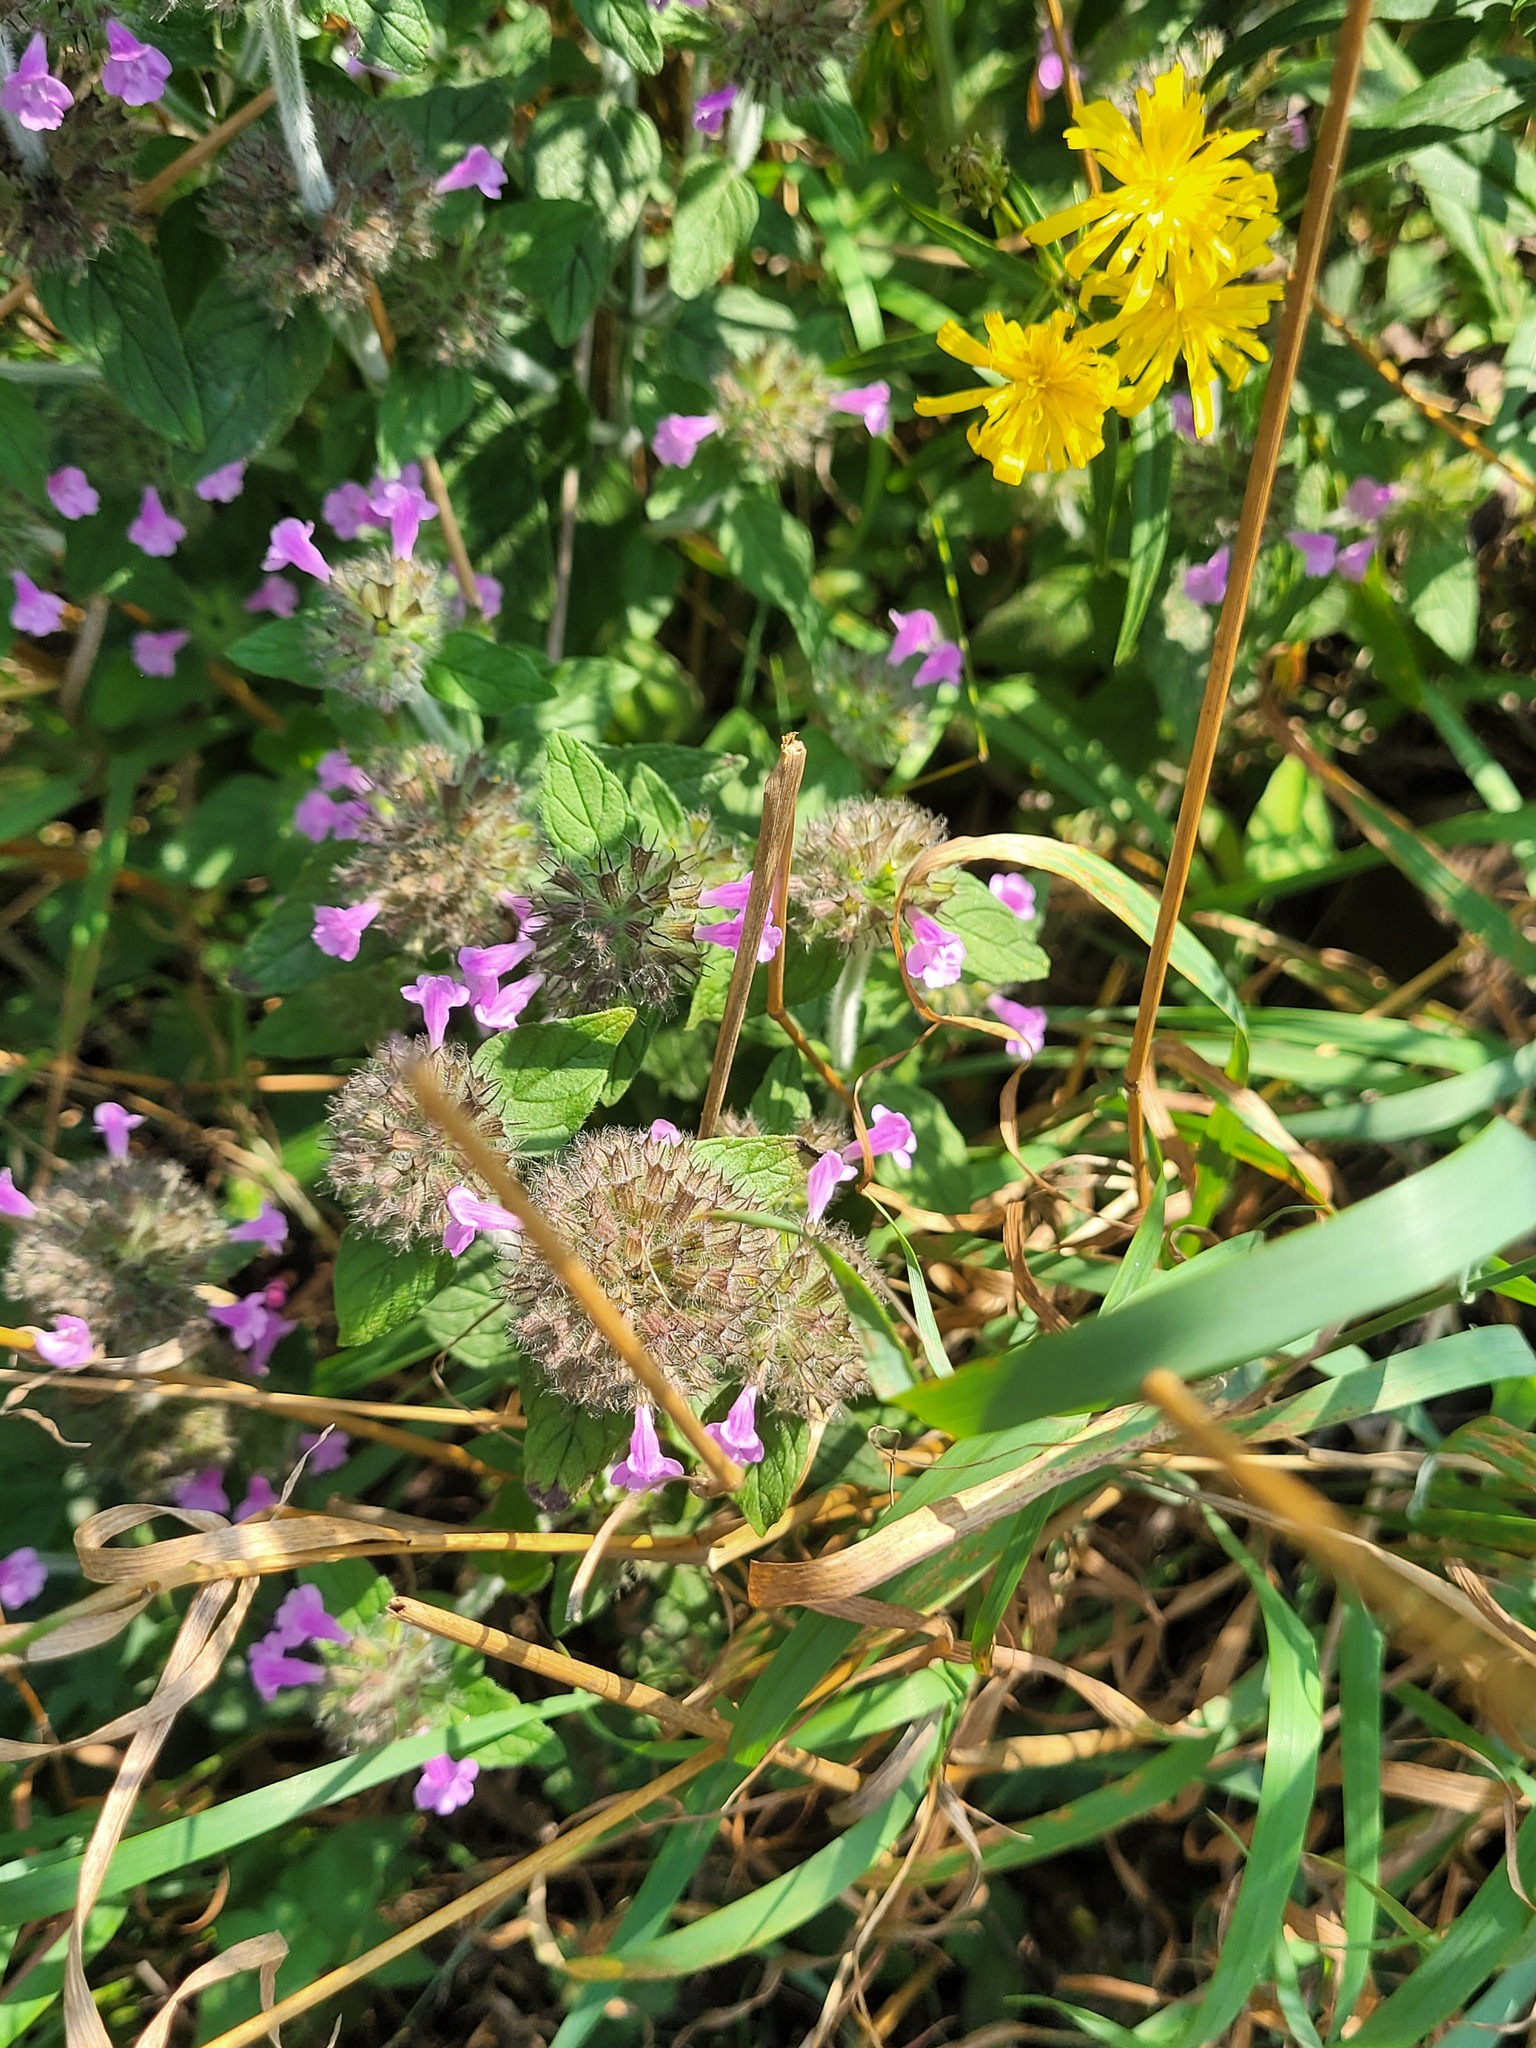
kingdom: Plantae
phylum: Tracheophyta
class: Magnoliopsida
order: Lamiales
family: Lamiaceae
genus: Clinopodium
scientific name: Clinopodium vulgare
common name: Wild basil
